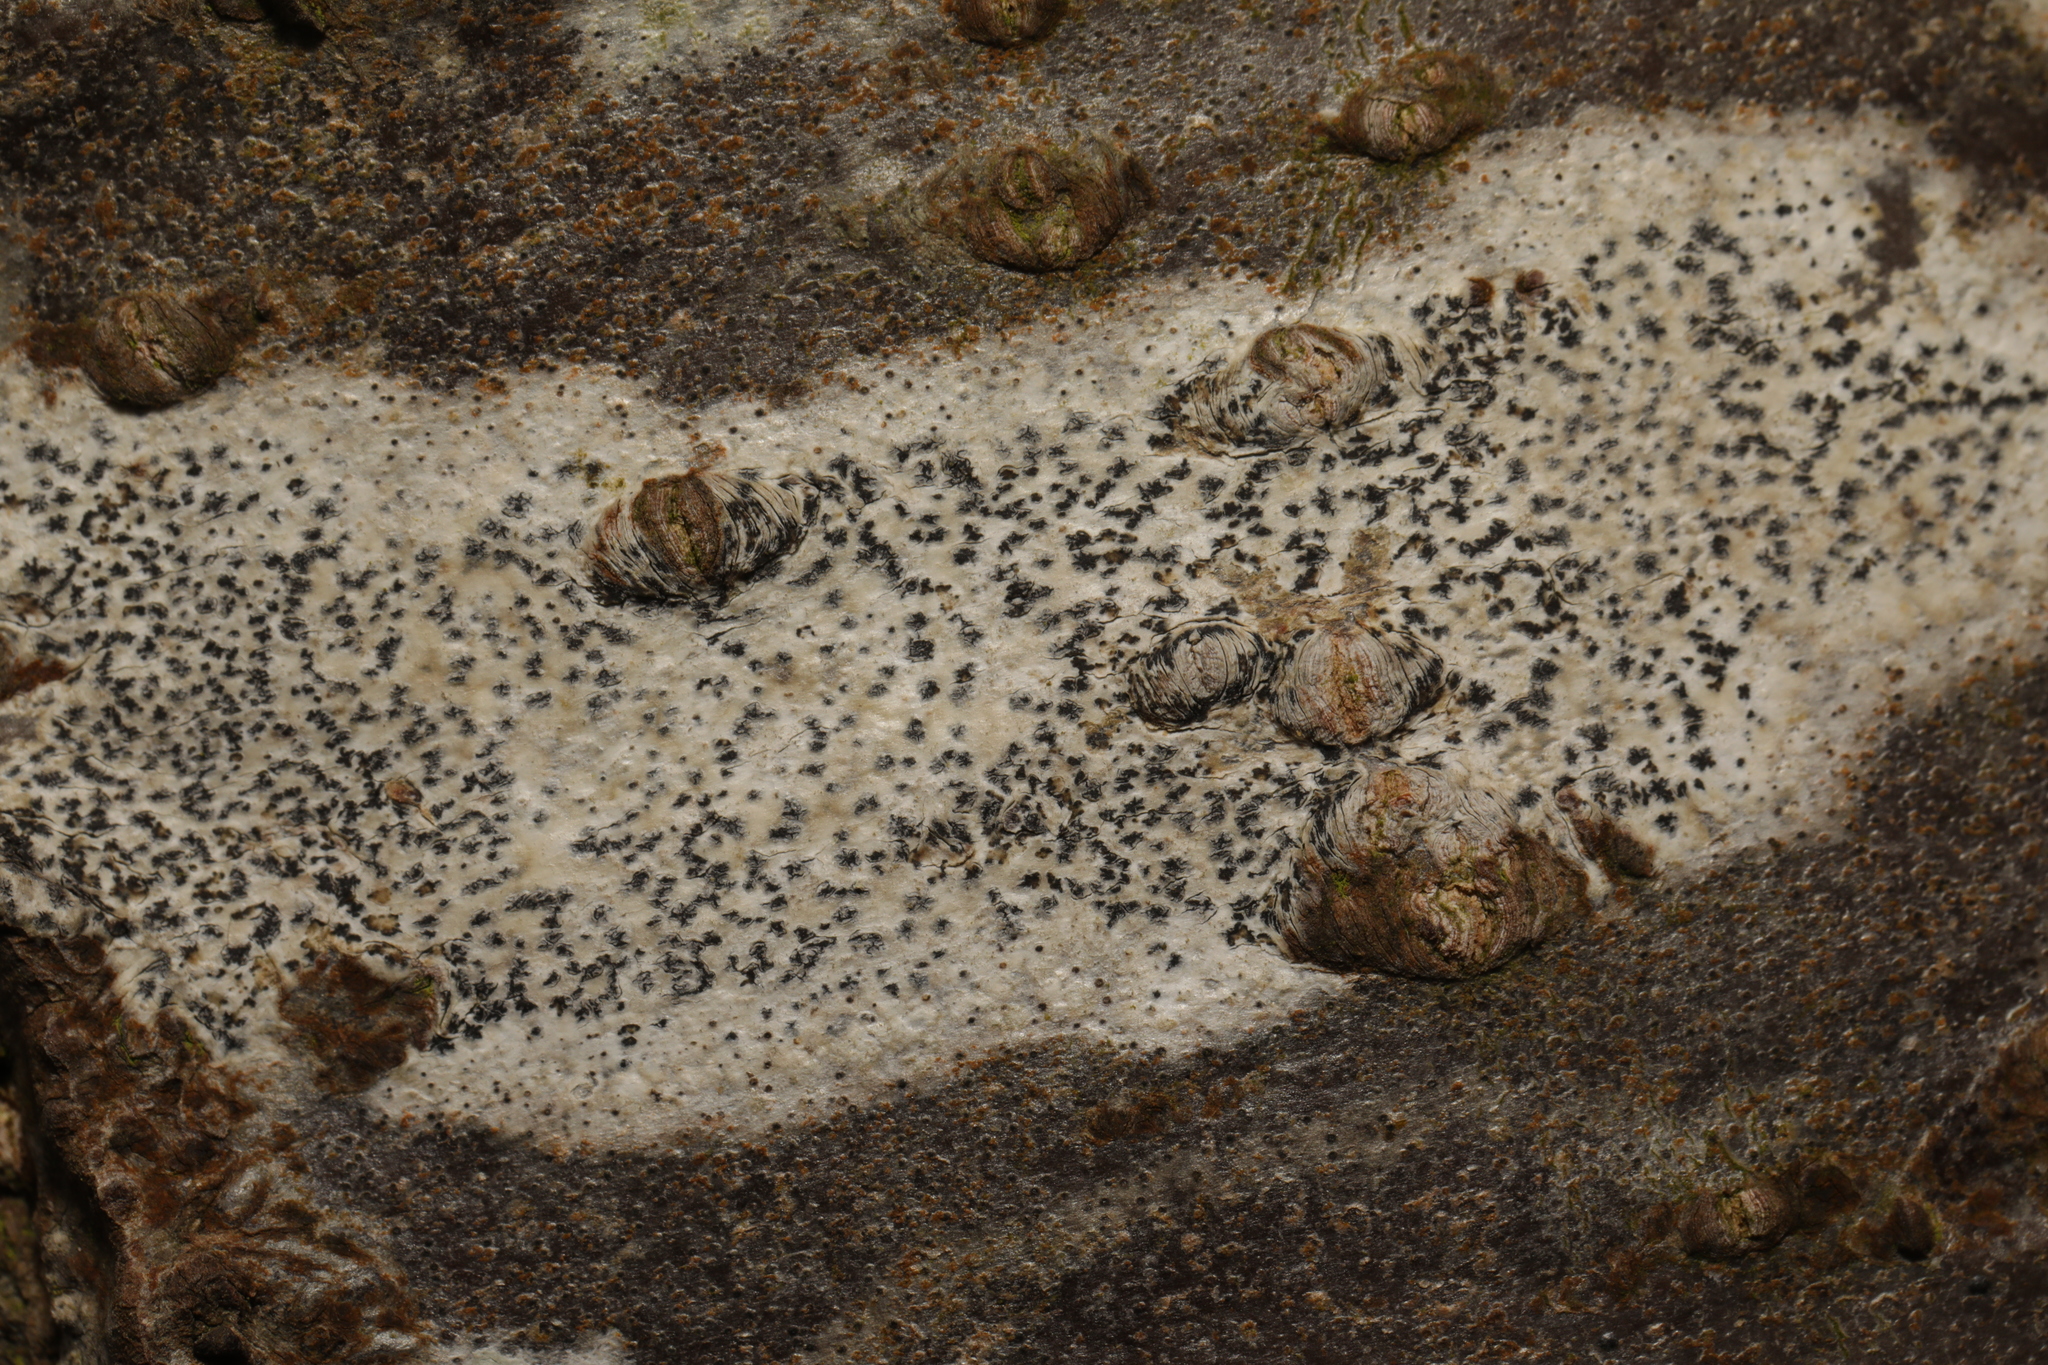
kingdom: Fungi
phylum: Ascomycota
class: Arthoniomycetes
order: Arthoniales
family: Arthoniaceae
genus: Arthonia
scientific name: Arthonia radiata
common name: Asterisk lichen
